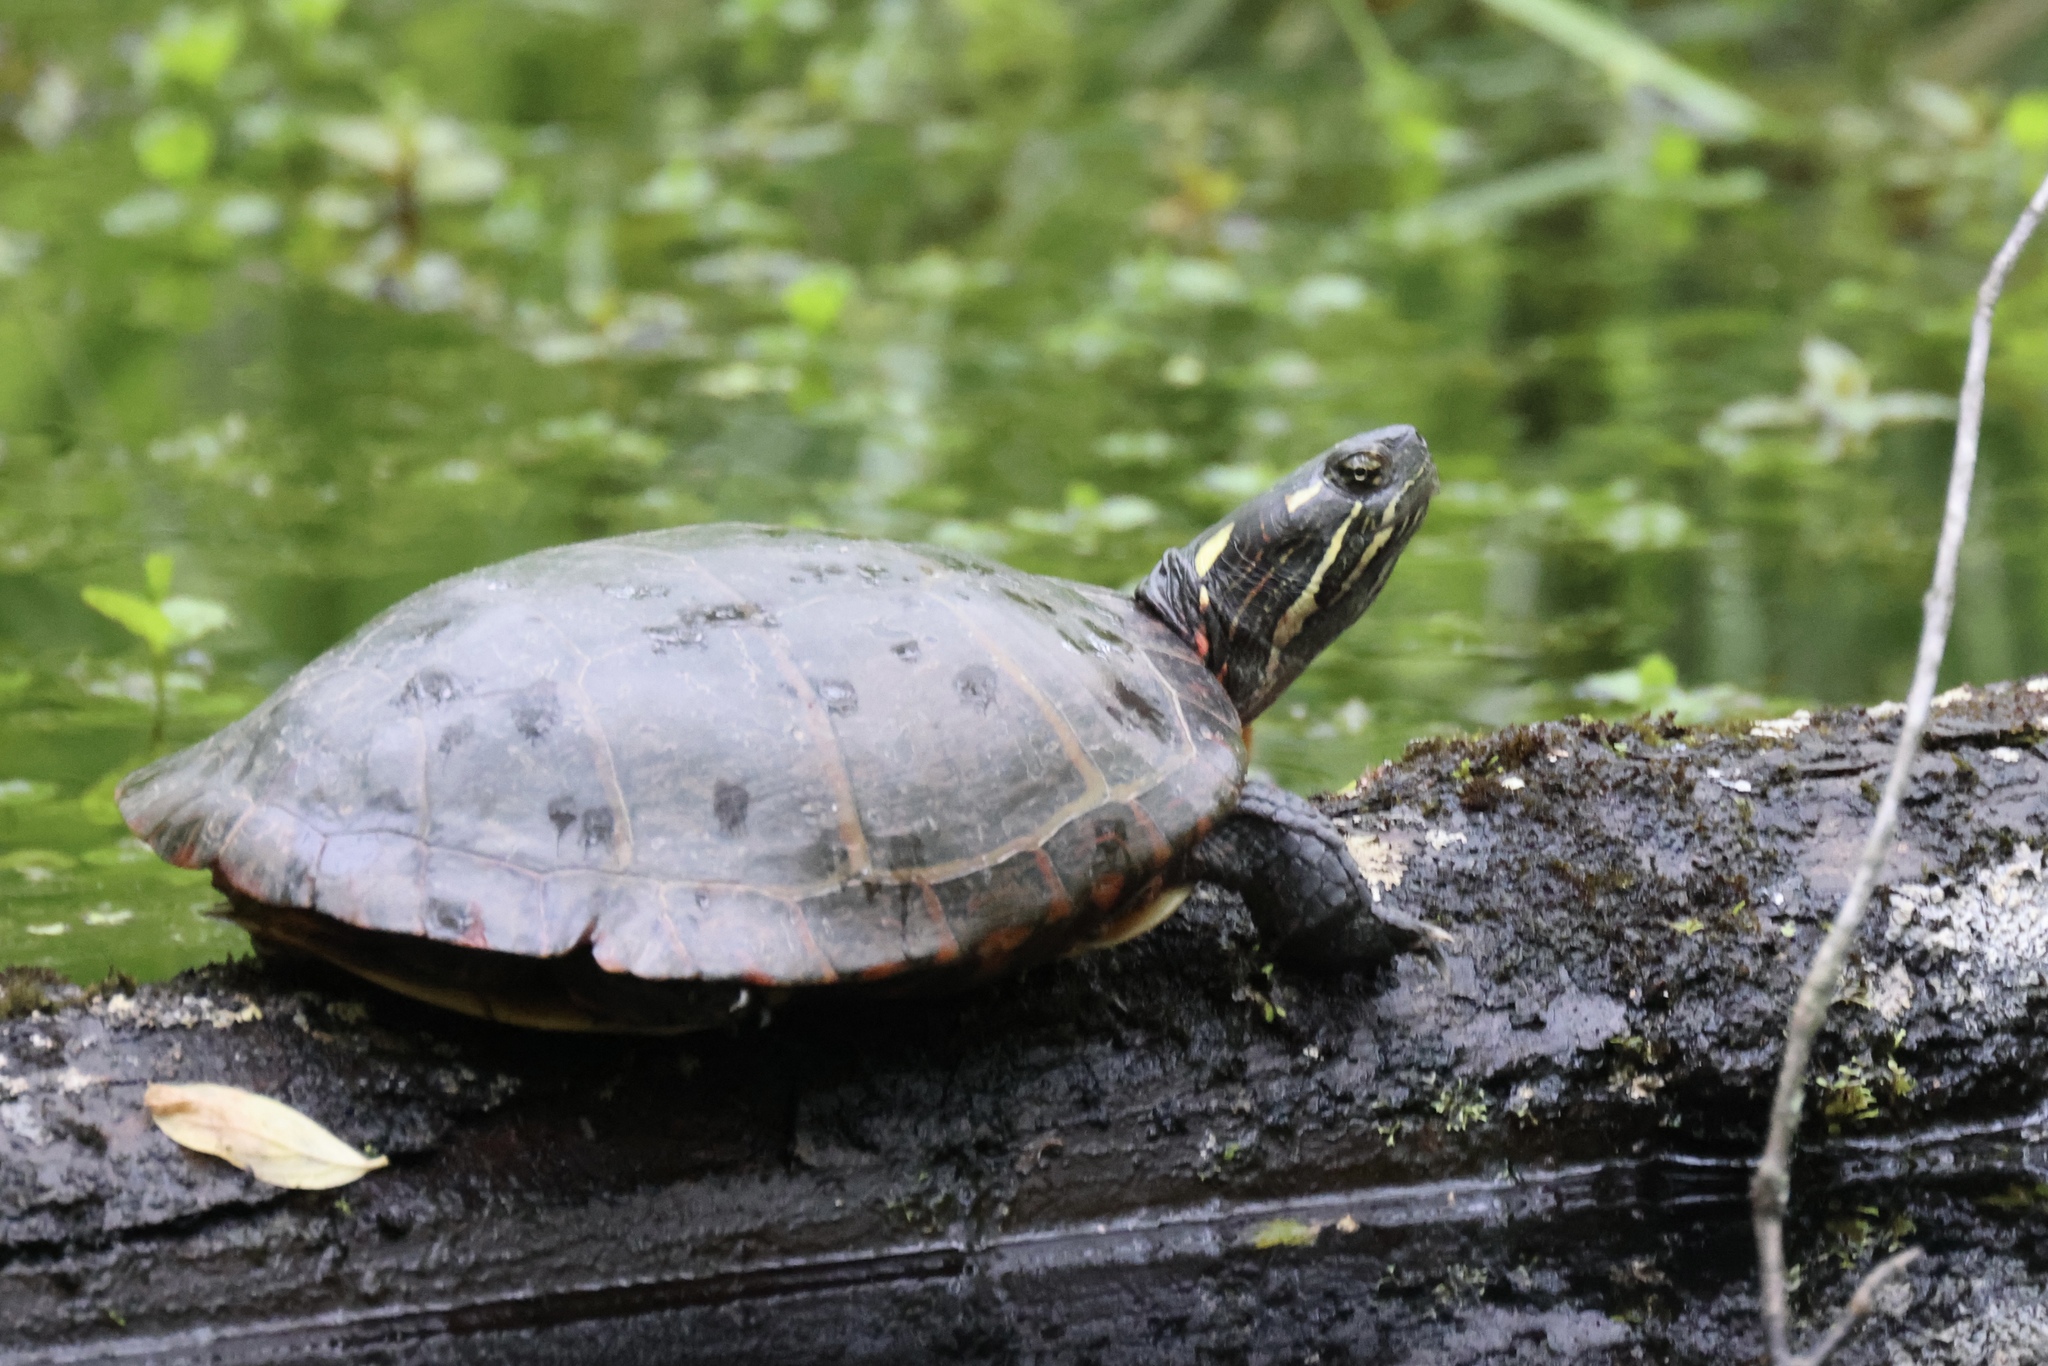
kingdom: Animalia
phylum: Chordata
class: Testudines
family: Emydidae
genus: Chrysemys
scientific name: Chrysemys picta
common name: Painted turtle
